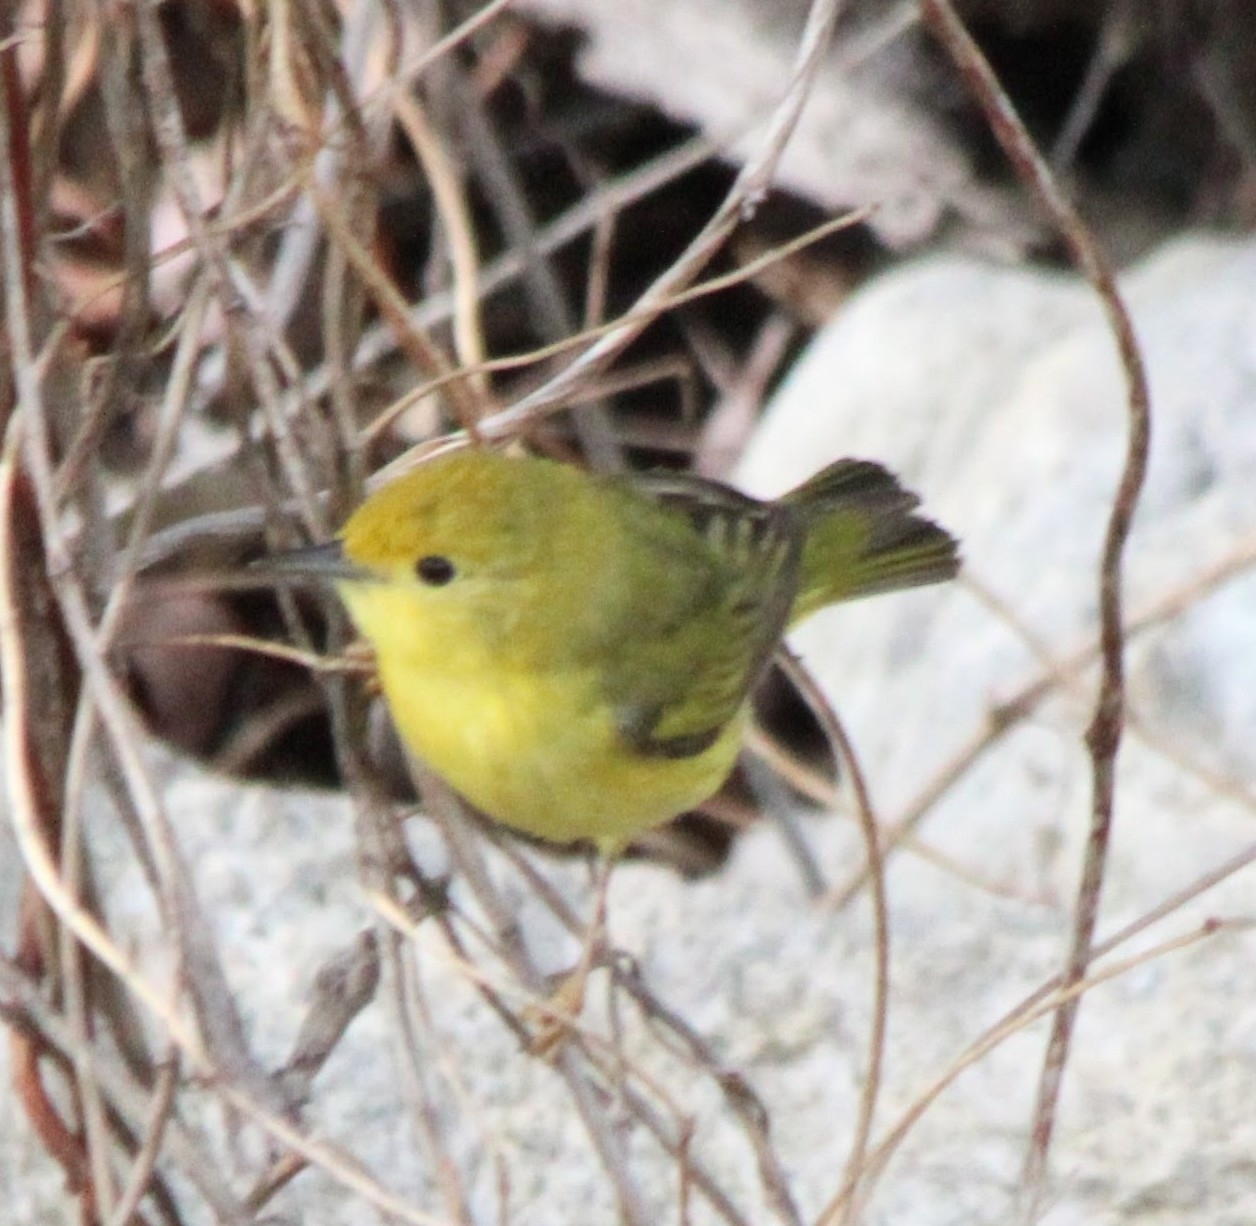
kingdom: Animalia
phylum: Chordata
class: Aves
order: Passeriformes
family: Parulidae
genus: Setophaga
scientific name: Setophaga petechia
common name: Yellow warbler
